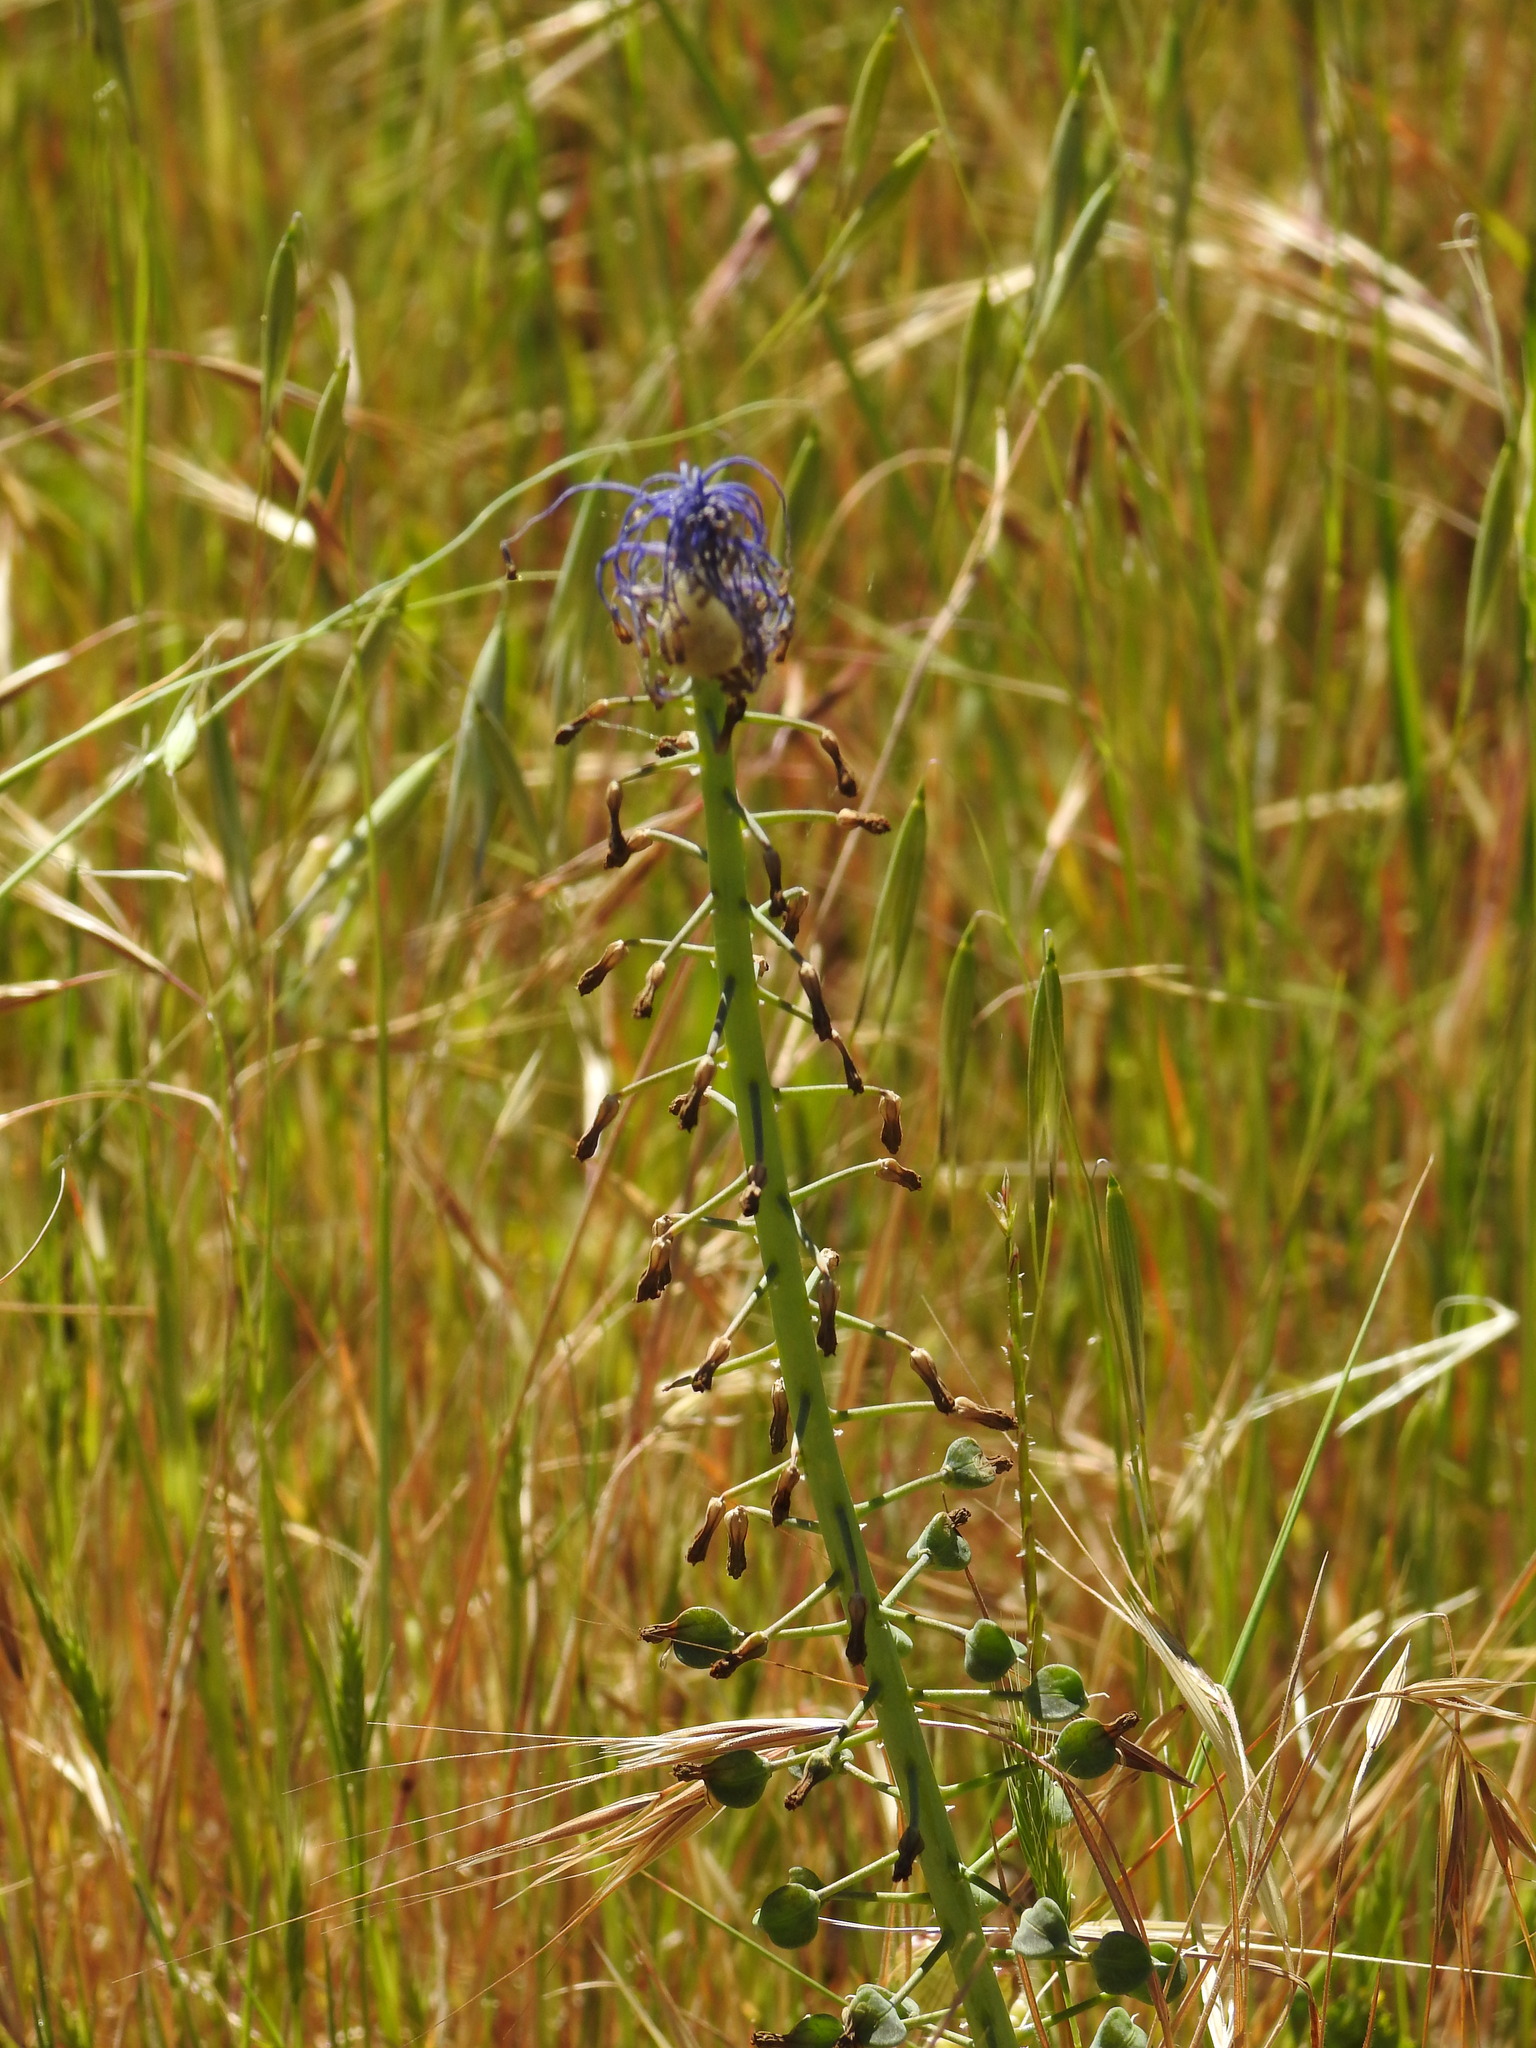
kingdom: Plantae
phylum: Tracheophyta
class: Liliopsida
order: Asparagales
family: Asparagaceae
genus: Muscari
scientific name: Muscari comosum
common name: Tassel hyacinth
